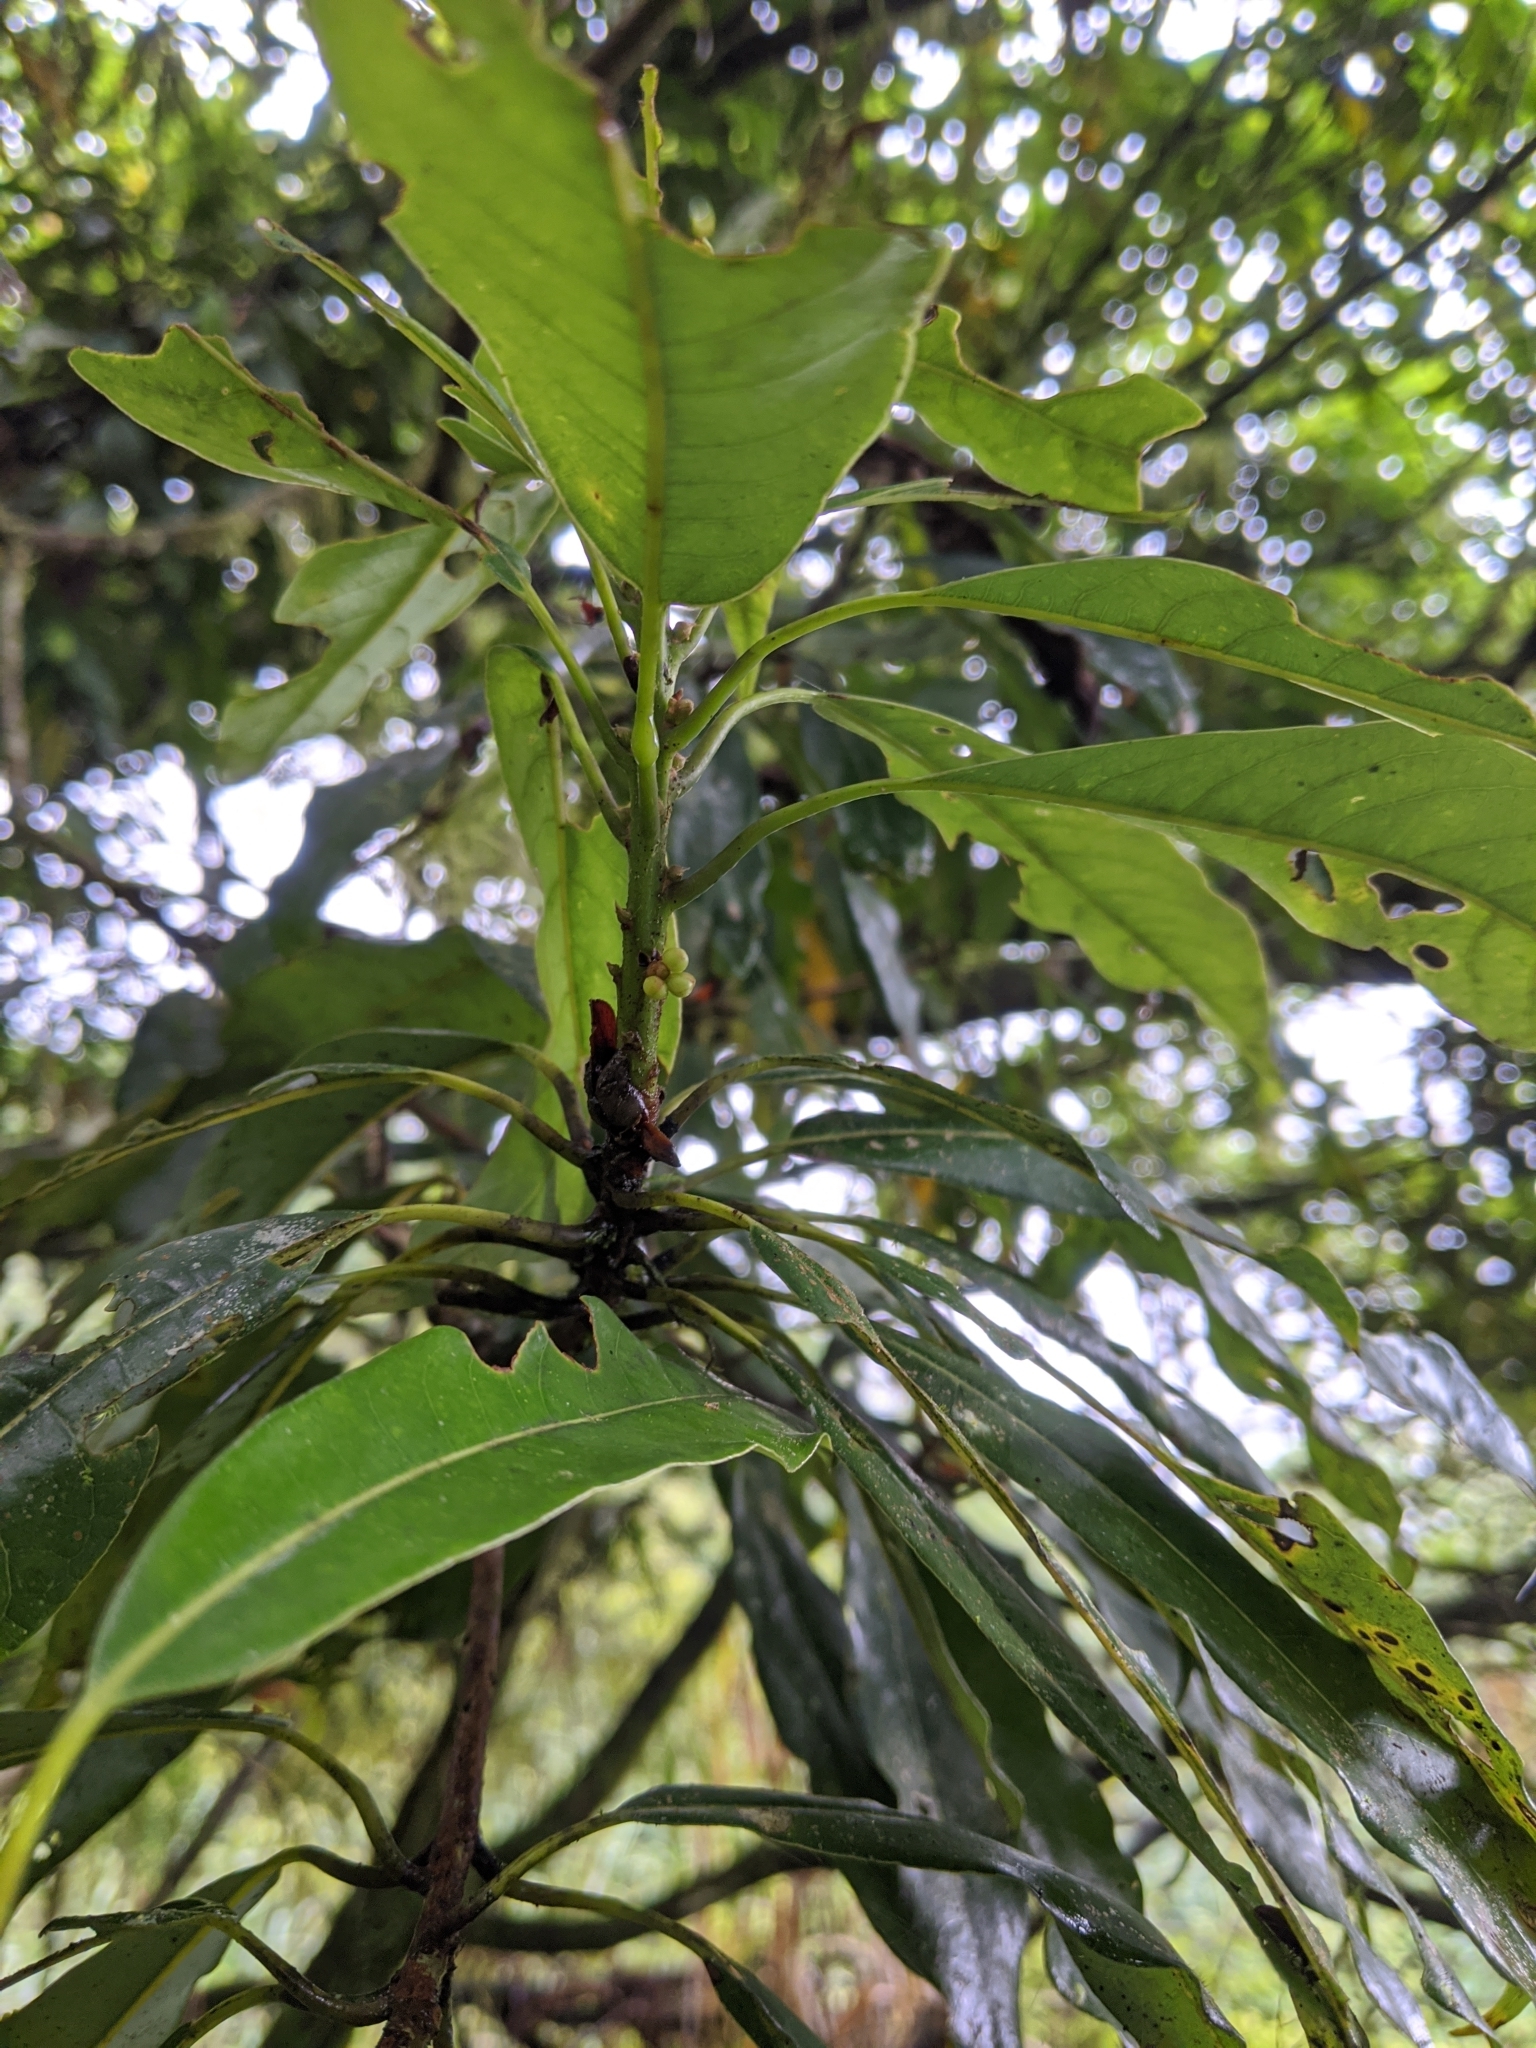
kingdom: Plantae
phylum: Tracheophyta
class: Magnoliopsida
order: Laurales
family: Lauraceae
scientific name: Lauraceae
